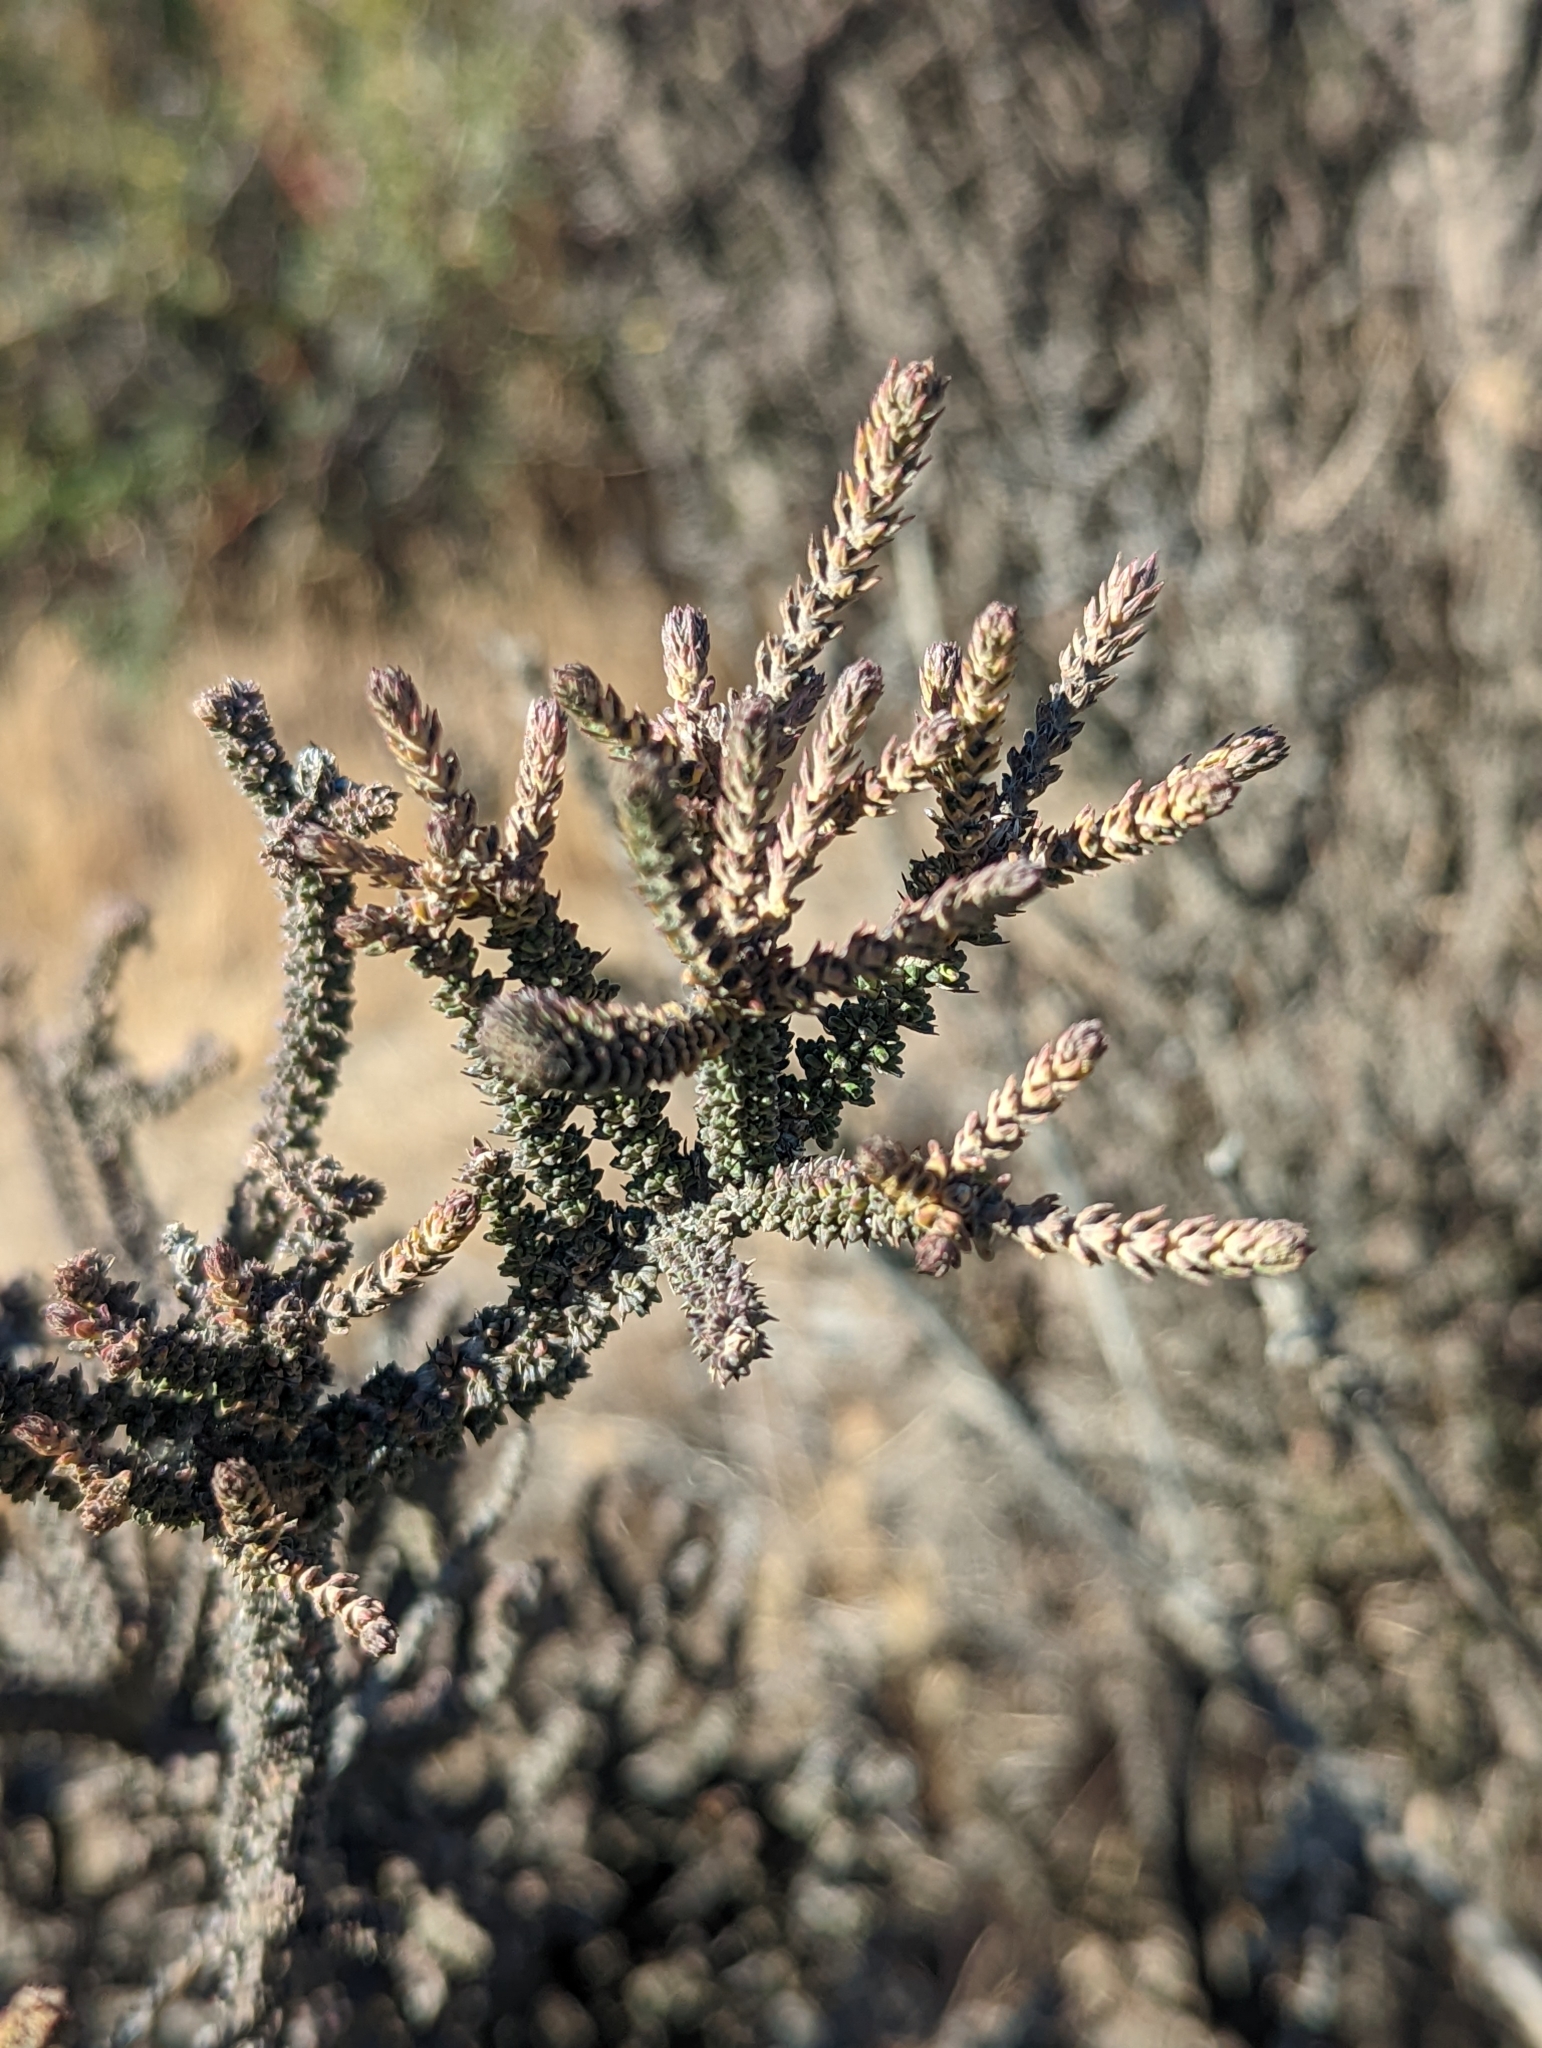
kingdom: Plantae
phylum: Tracheophyta
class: Magnoliopsida
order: Lamiales
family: Verbenaceae
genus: Mulguraea
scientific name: Mulguraea tridens
